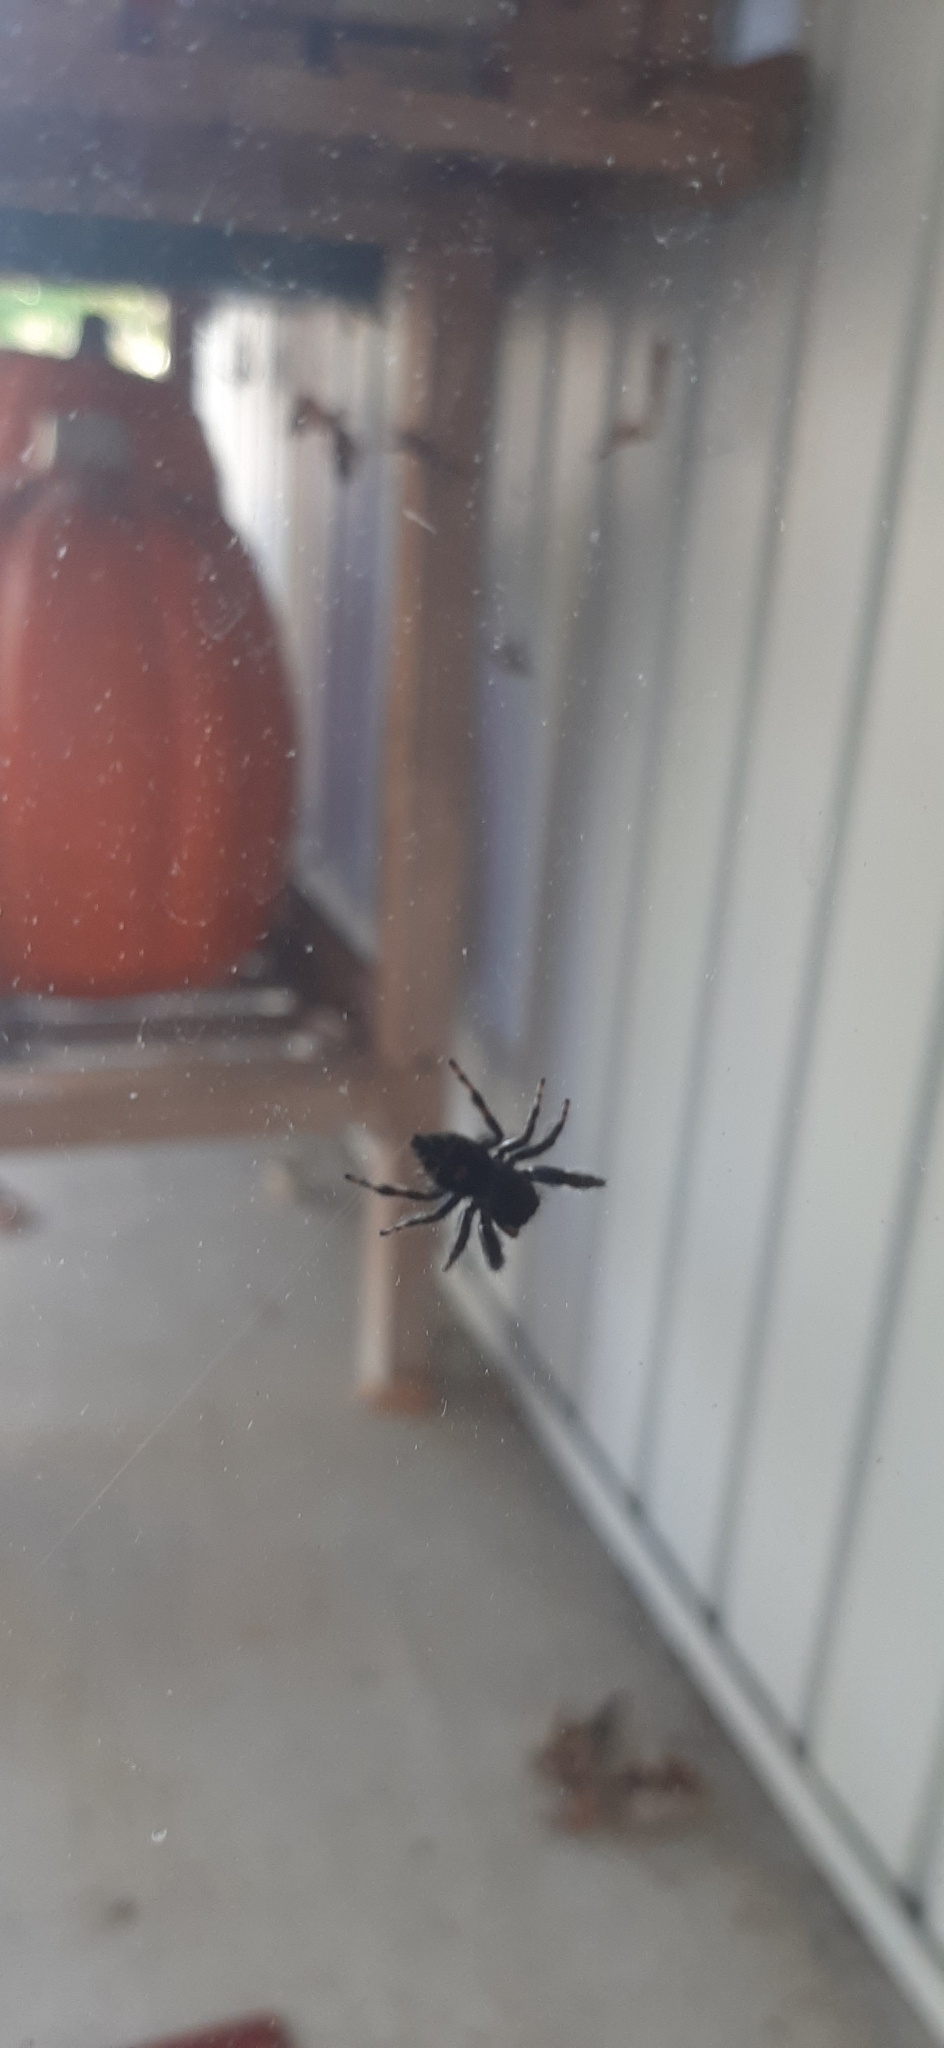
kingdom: Animalia
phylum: Arthropoda
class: Arachnida
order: Araneae
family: Salticidae
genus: Phidippus
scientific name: Phidippus audax
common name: Bold jumper
